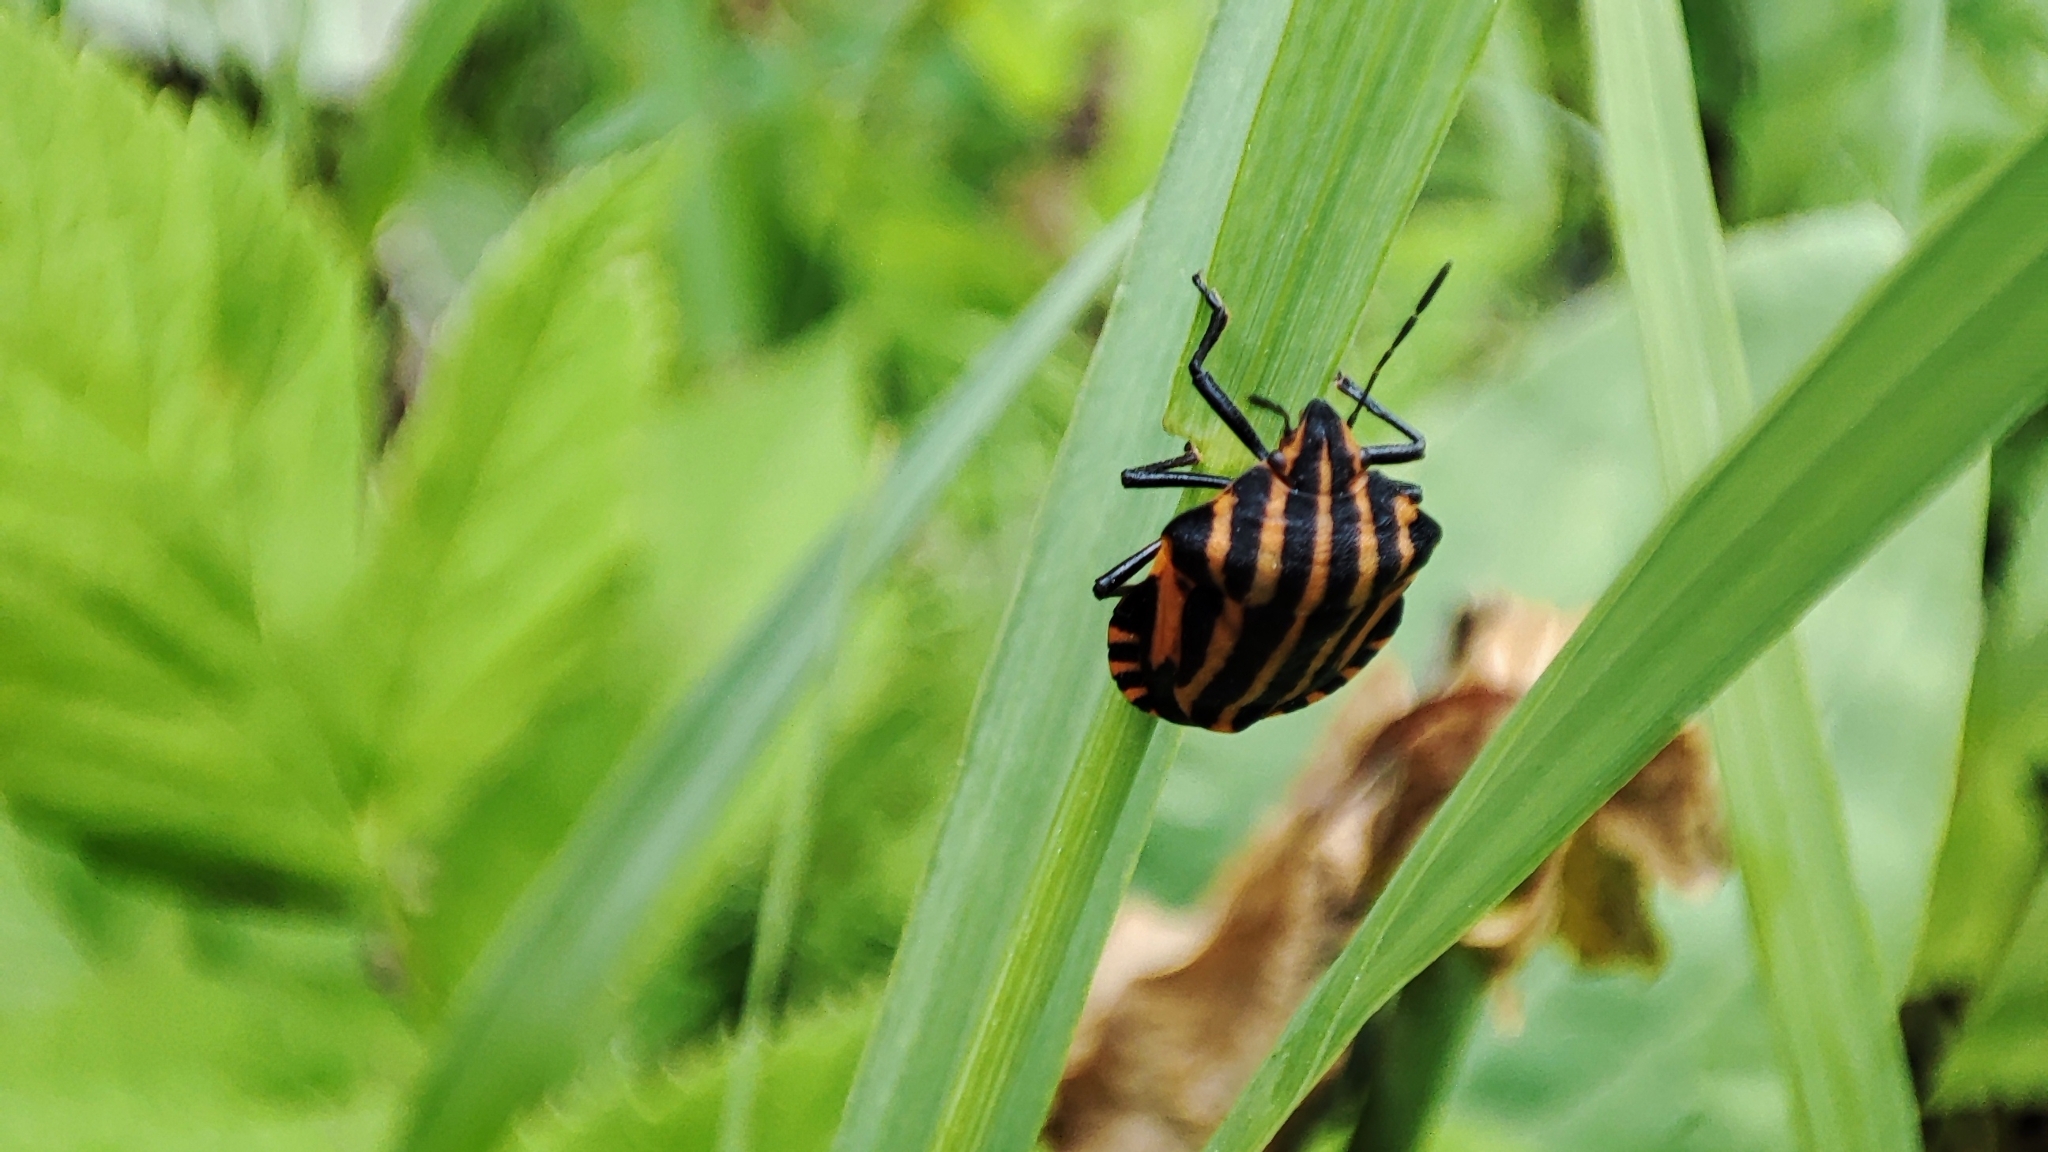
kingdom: Animalia
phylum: Arthropoda
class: Insecta
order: Hemiptera
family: Pentatomidae
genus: Graphosoma
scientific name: Graphosoma italicum
